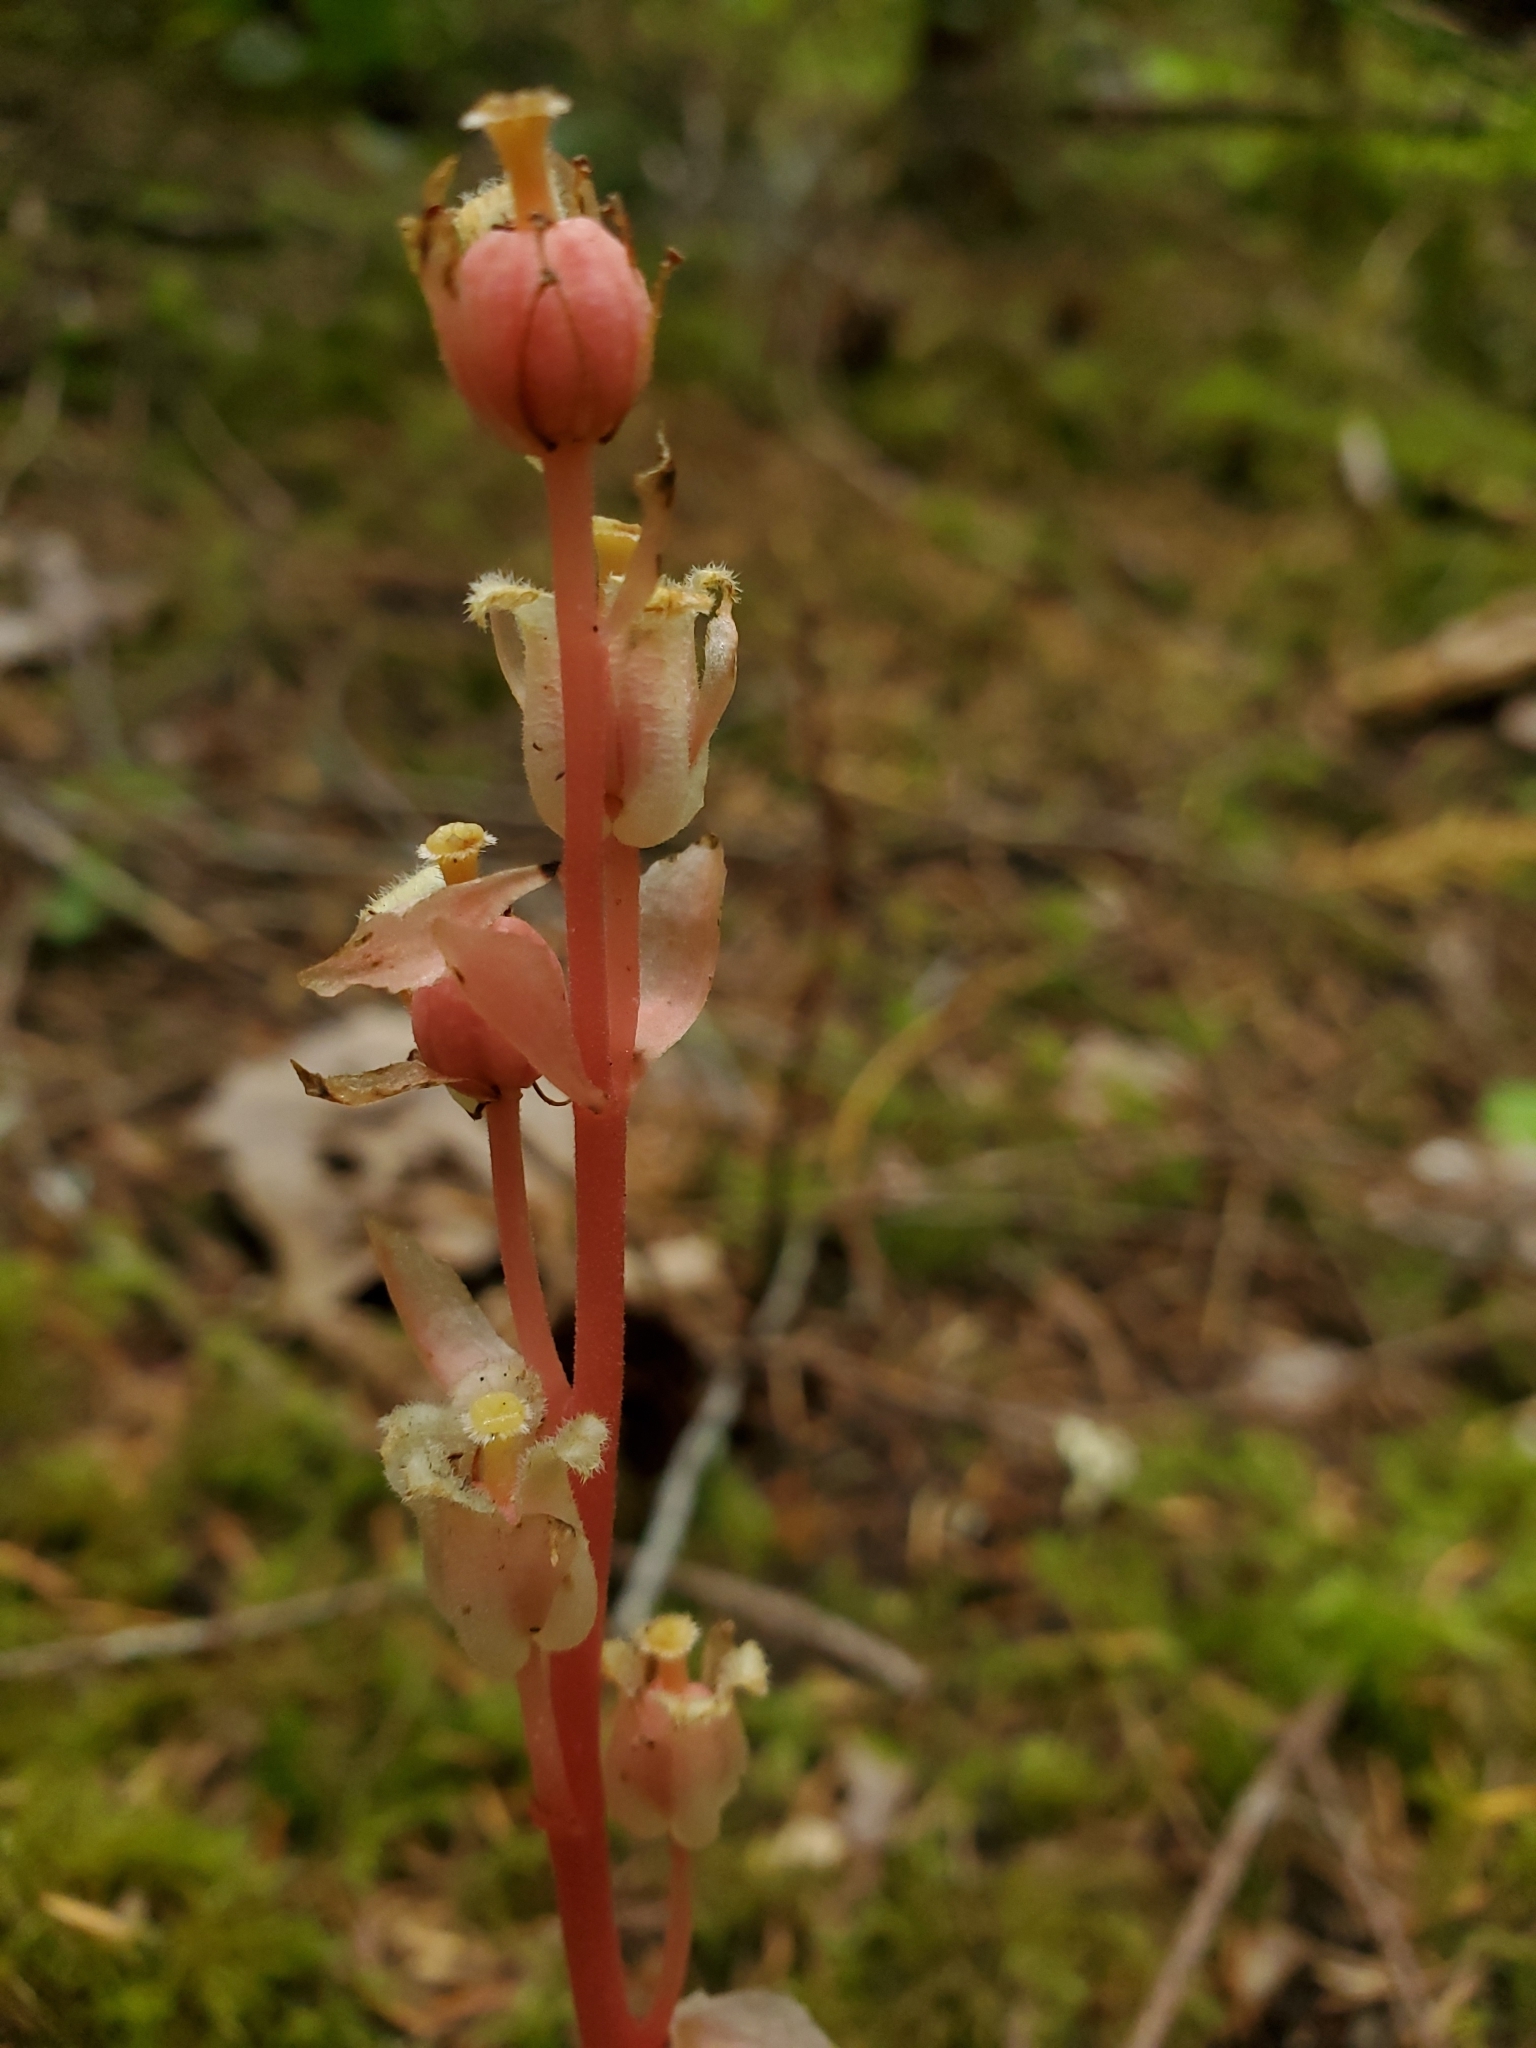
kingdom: Plantae
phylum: Tracheophyta
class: Magnoliopsida
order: Ericales
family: Ericaceae
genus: Hypopitys
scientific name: Hypopitys monotropa
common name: Yellow bird's-nest
